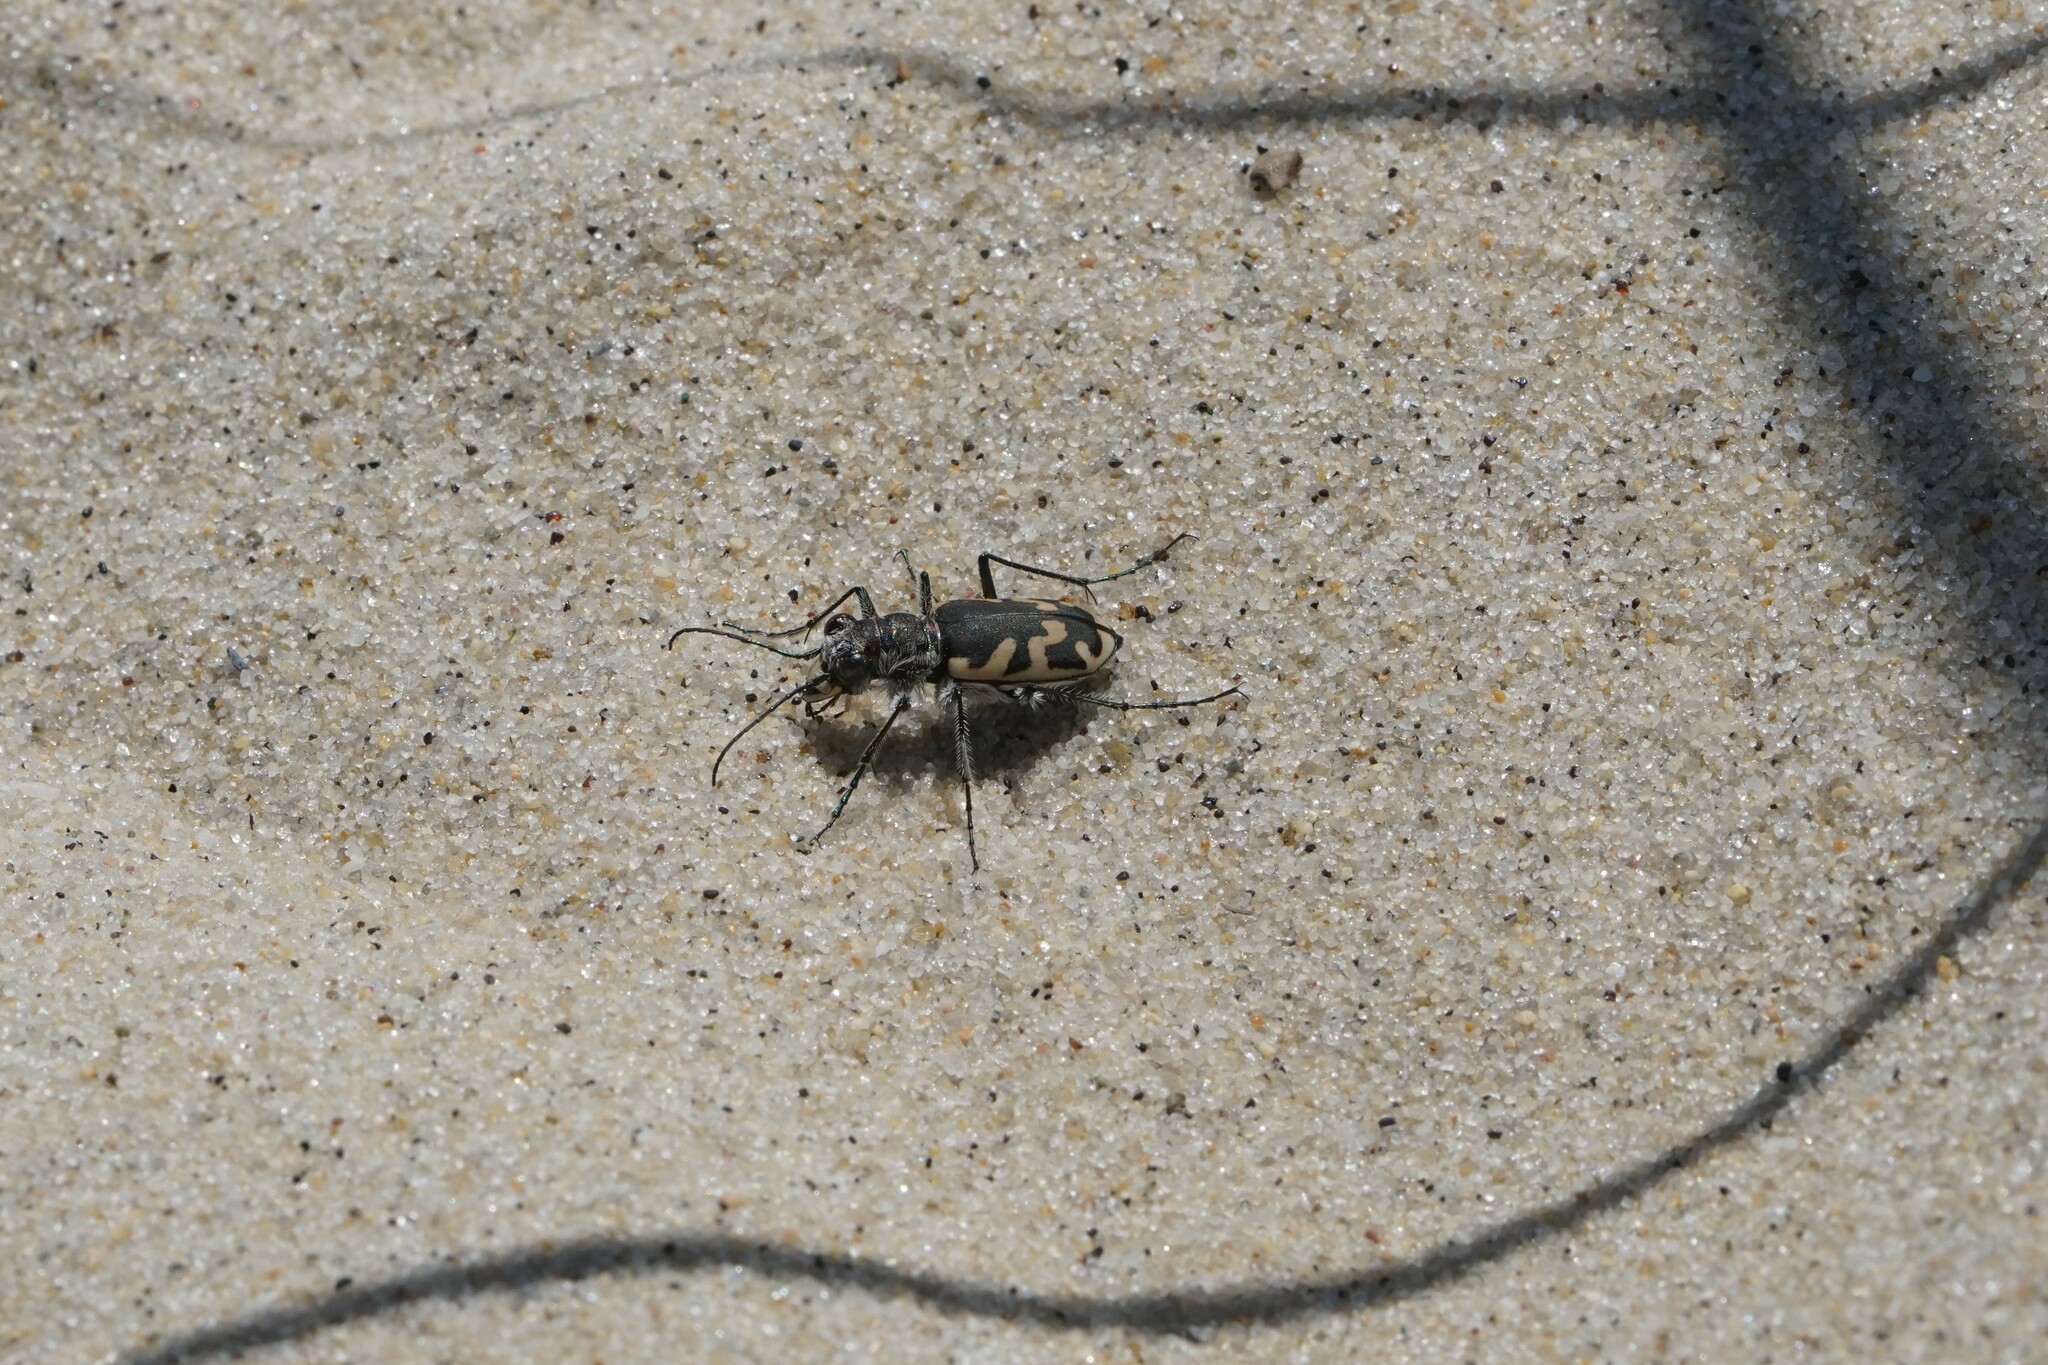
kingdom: Animalia
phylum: Arthropoda
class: Insecta
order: Coleoptera
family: Carabidae
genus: Cicindela
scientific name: Cicindela formosa
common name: Big sand tiger beetle
